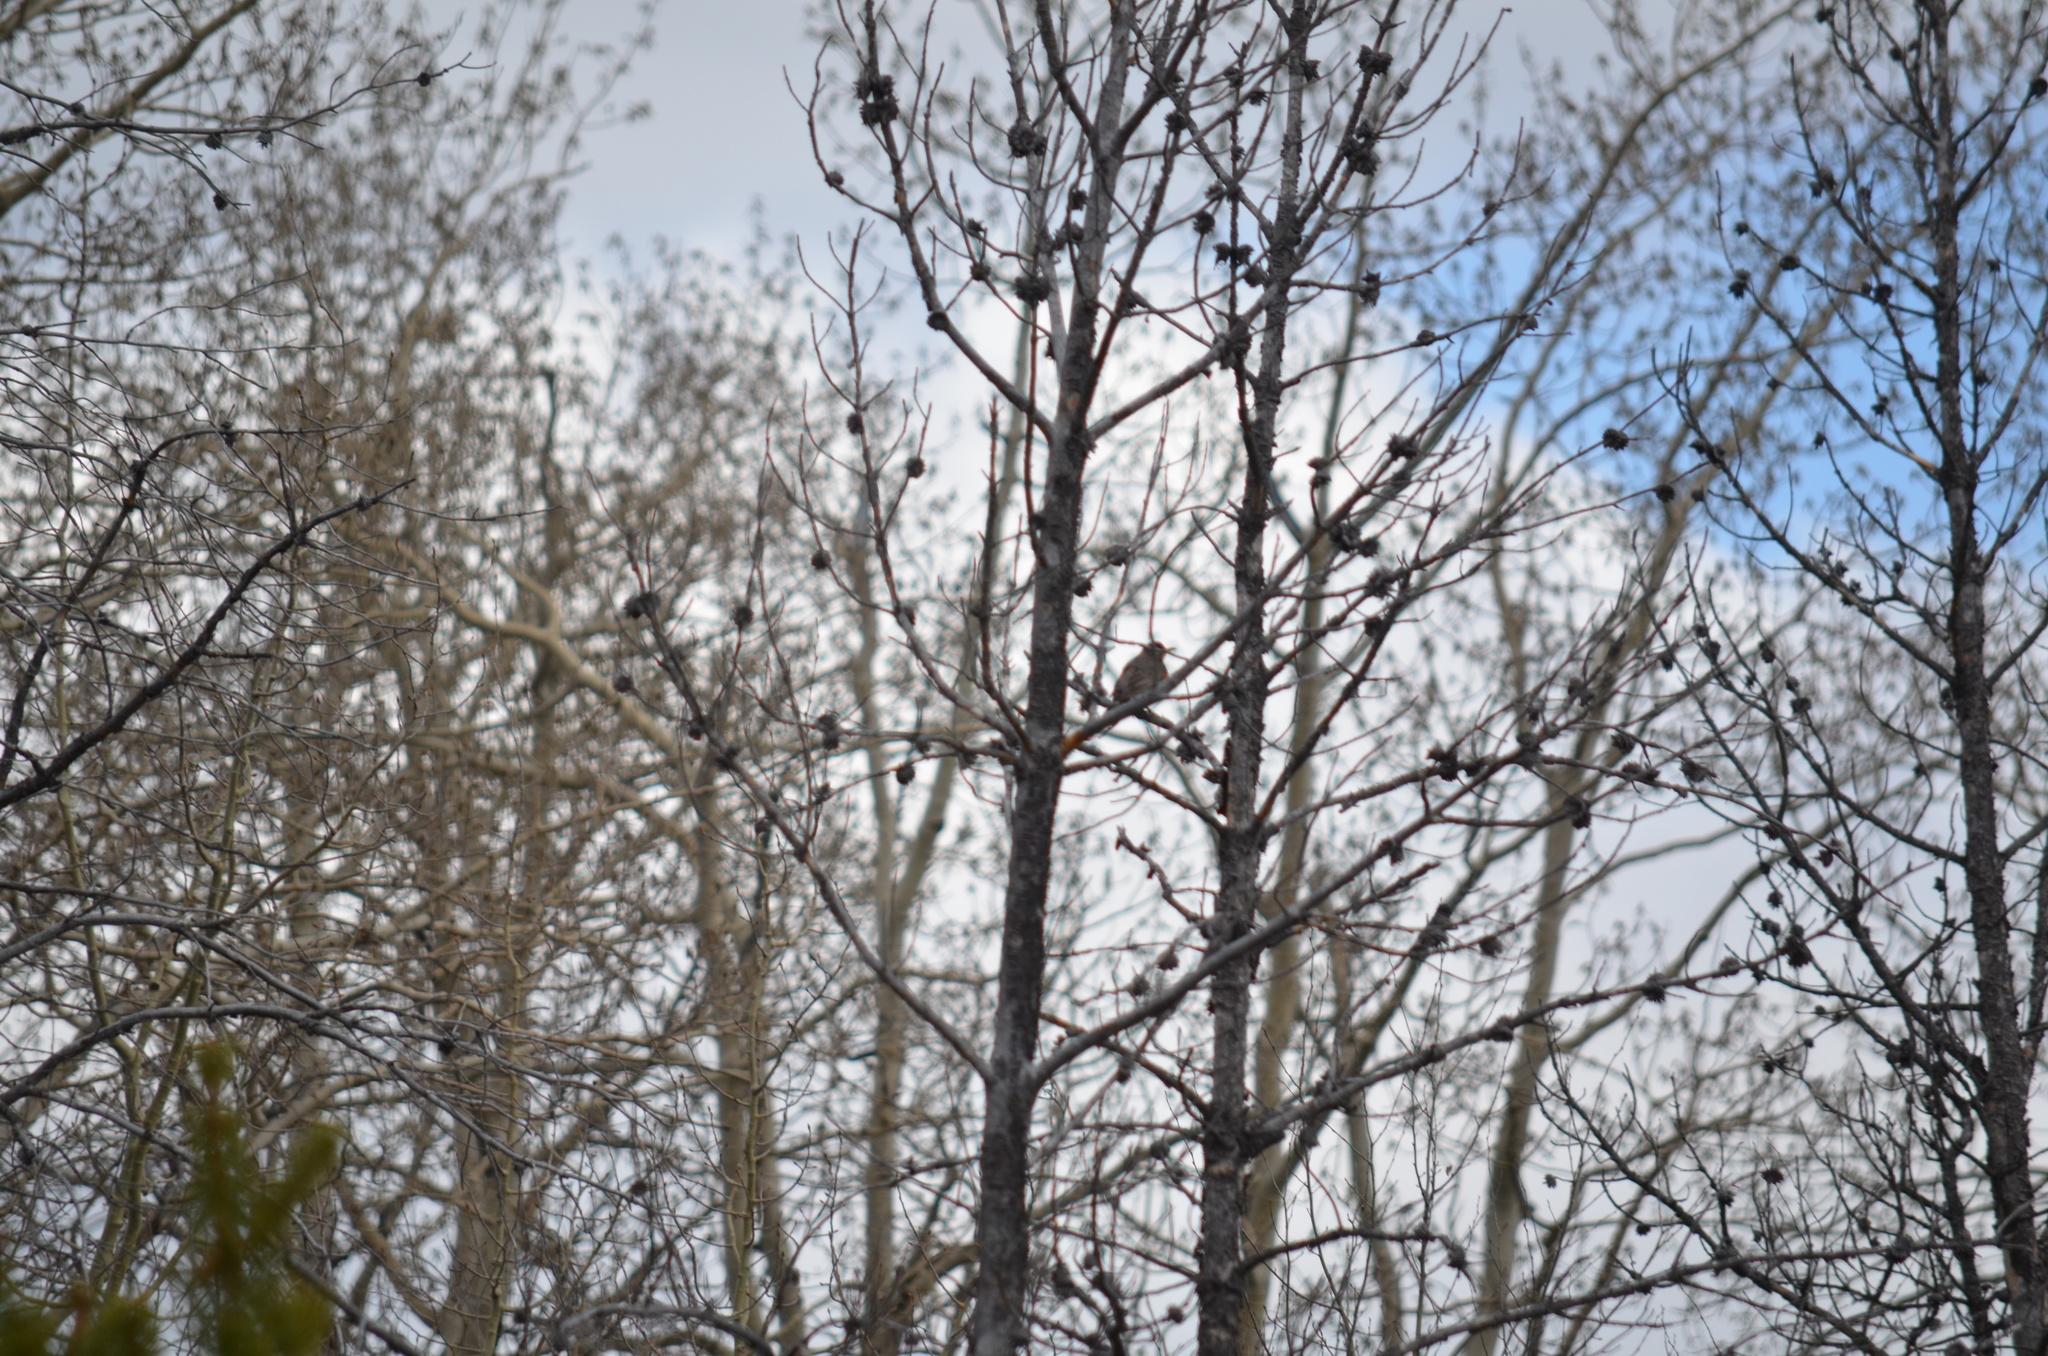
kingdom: Animalia
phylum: Chordata
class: Aves
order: Passeriformes
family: Turdidae
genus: Turdus
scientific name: Turdus migratorius
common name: American robin
